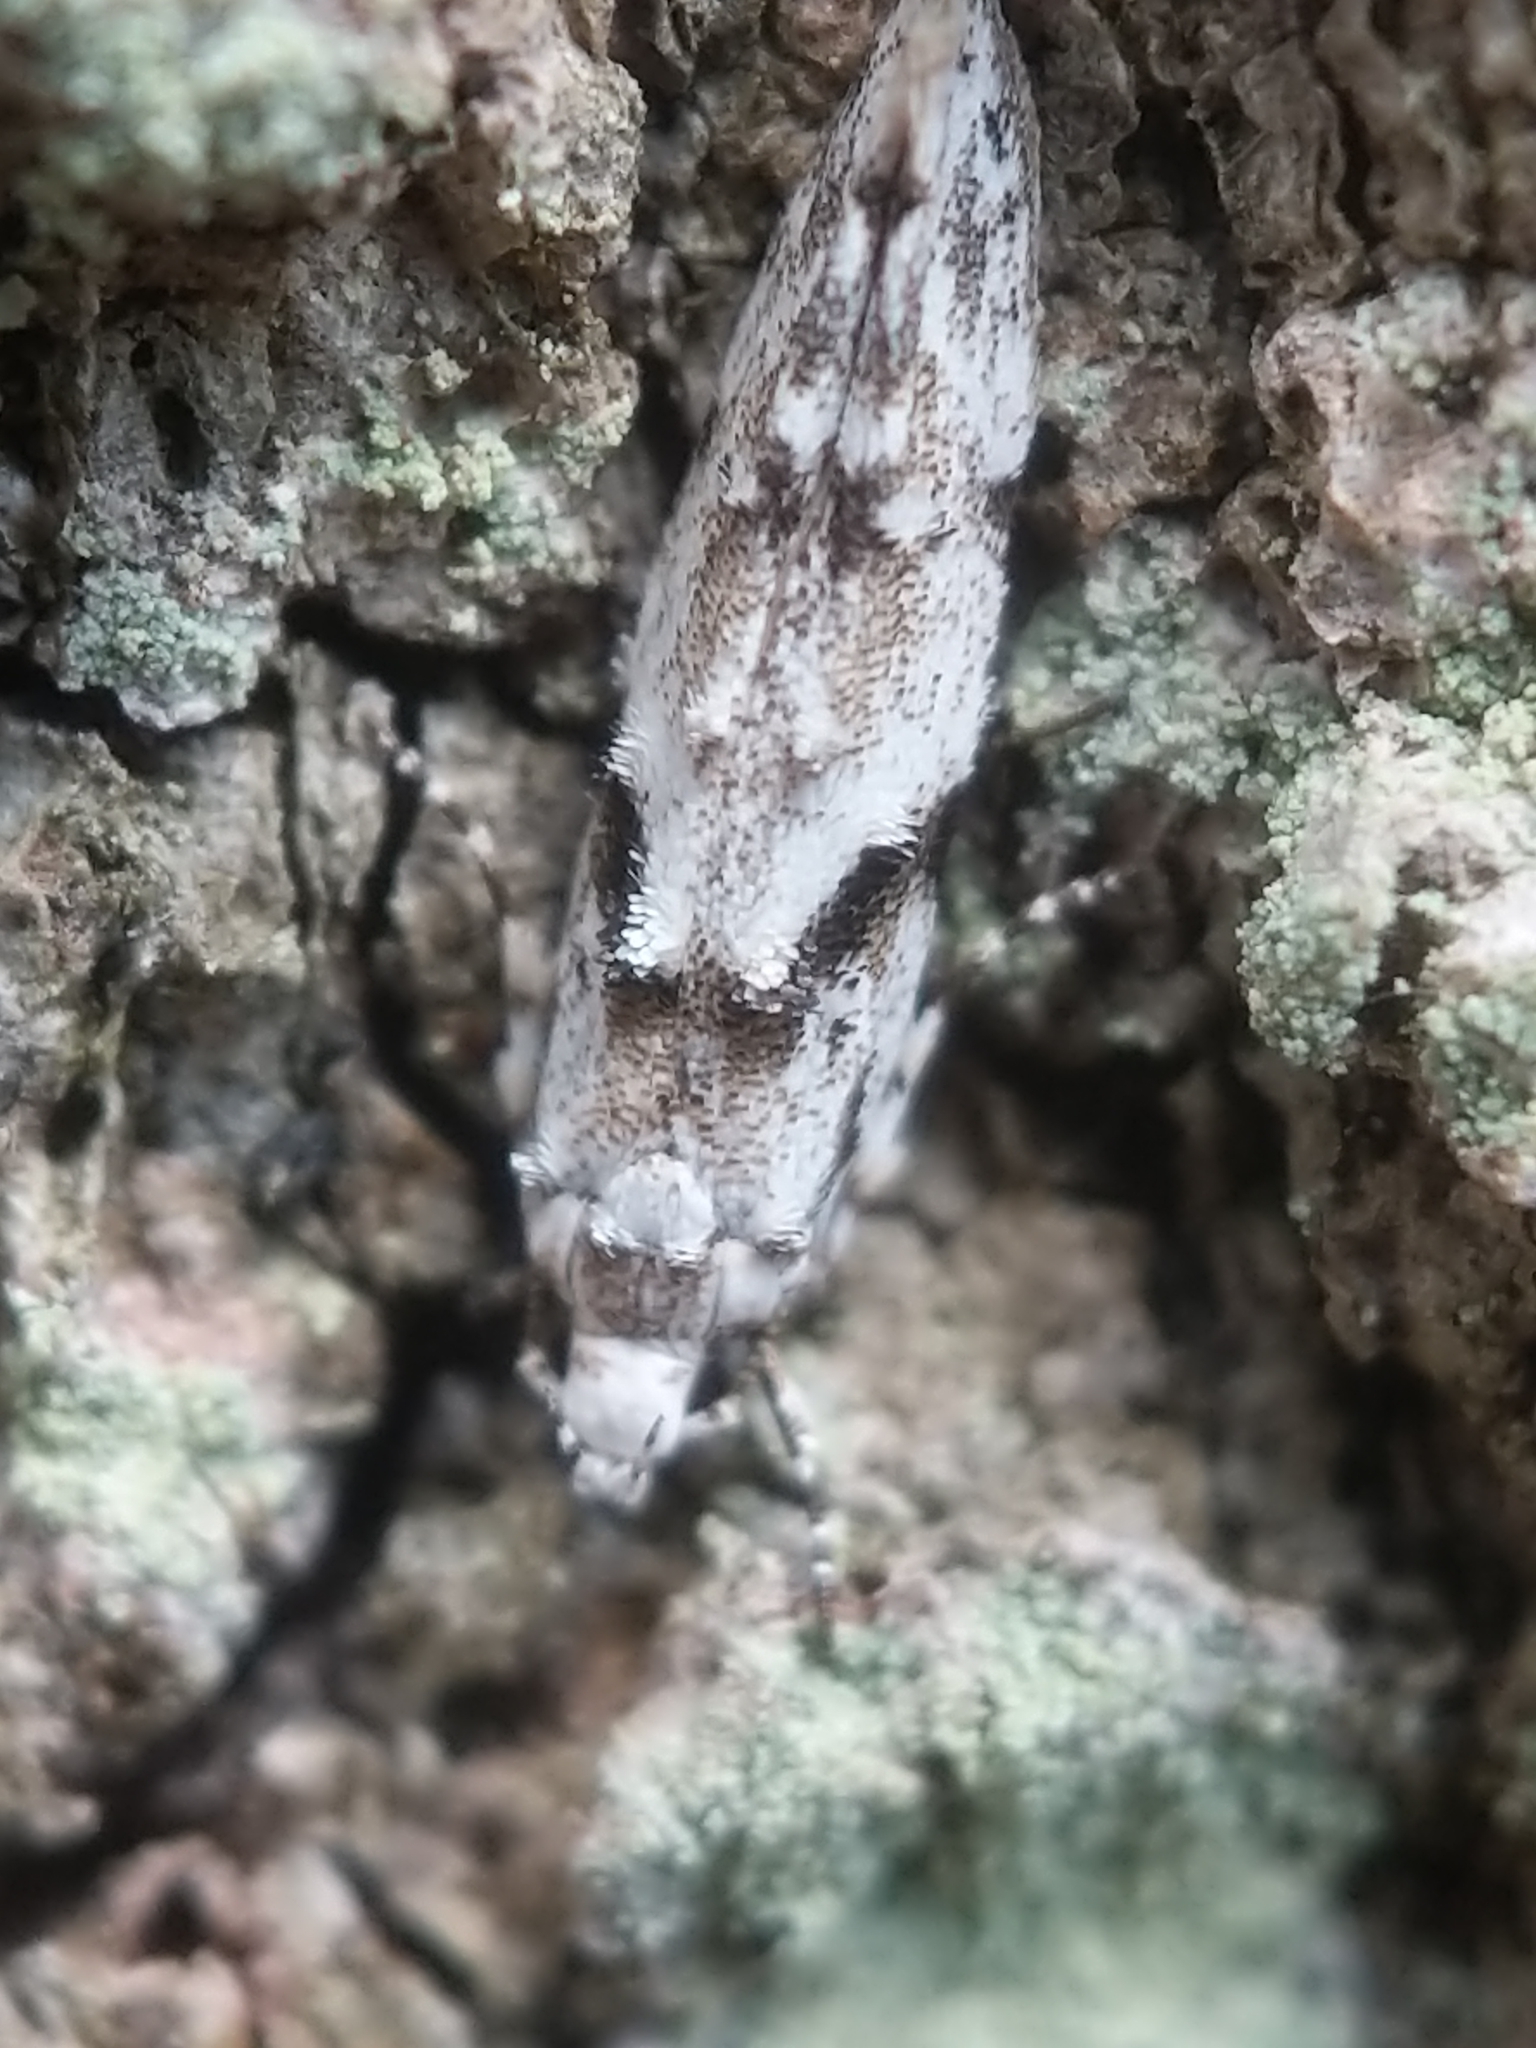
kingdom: Animalia
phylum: Arthropoda
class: Insecta
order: Lepidoptera
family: Gelechiidae
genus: Arogalea
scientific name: Arogalea cristifasciella
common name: White stripe-backed moth
